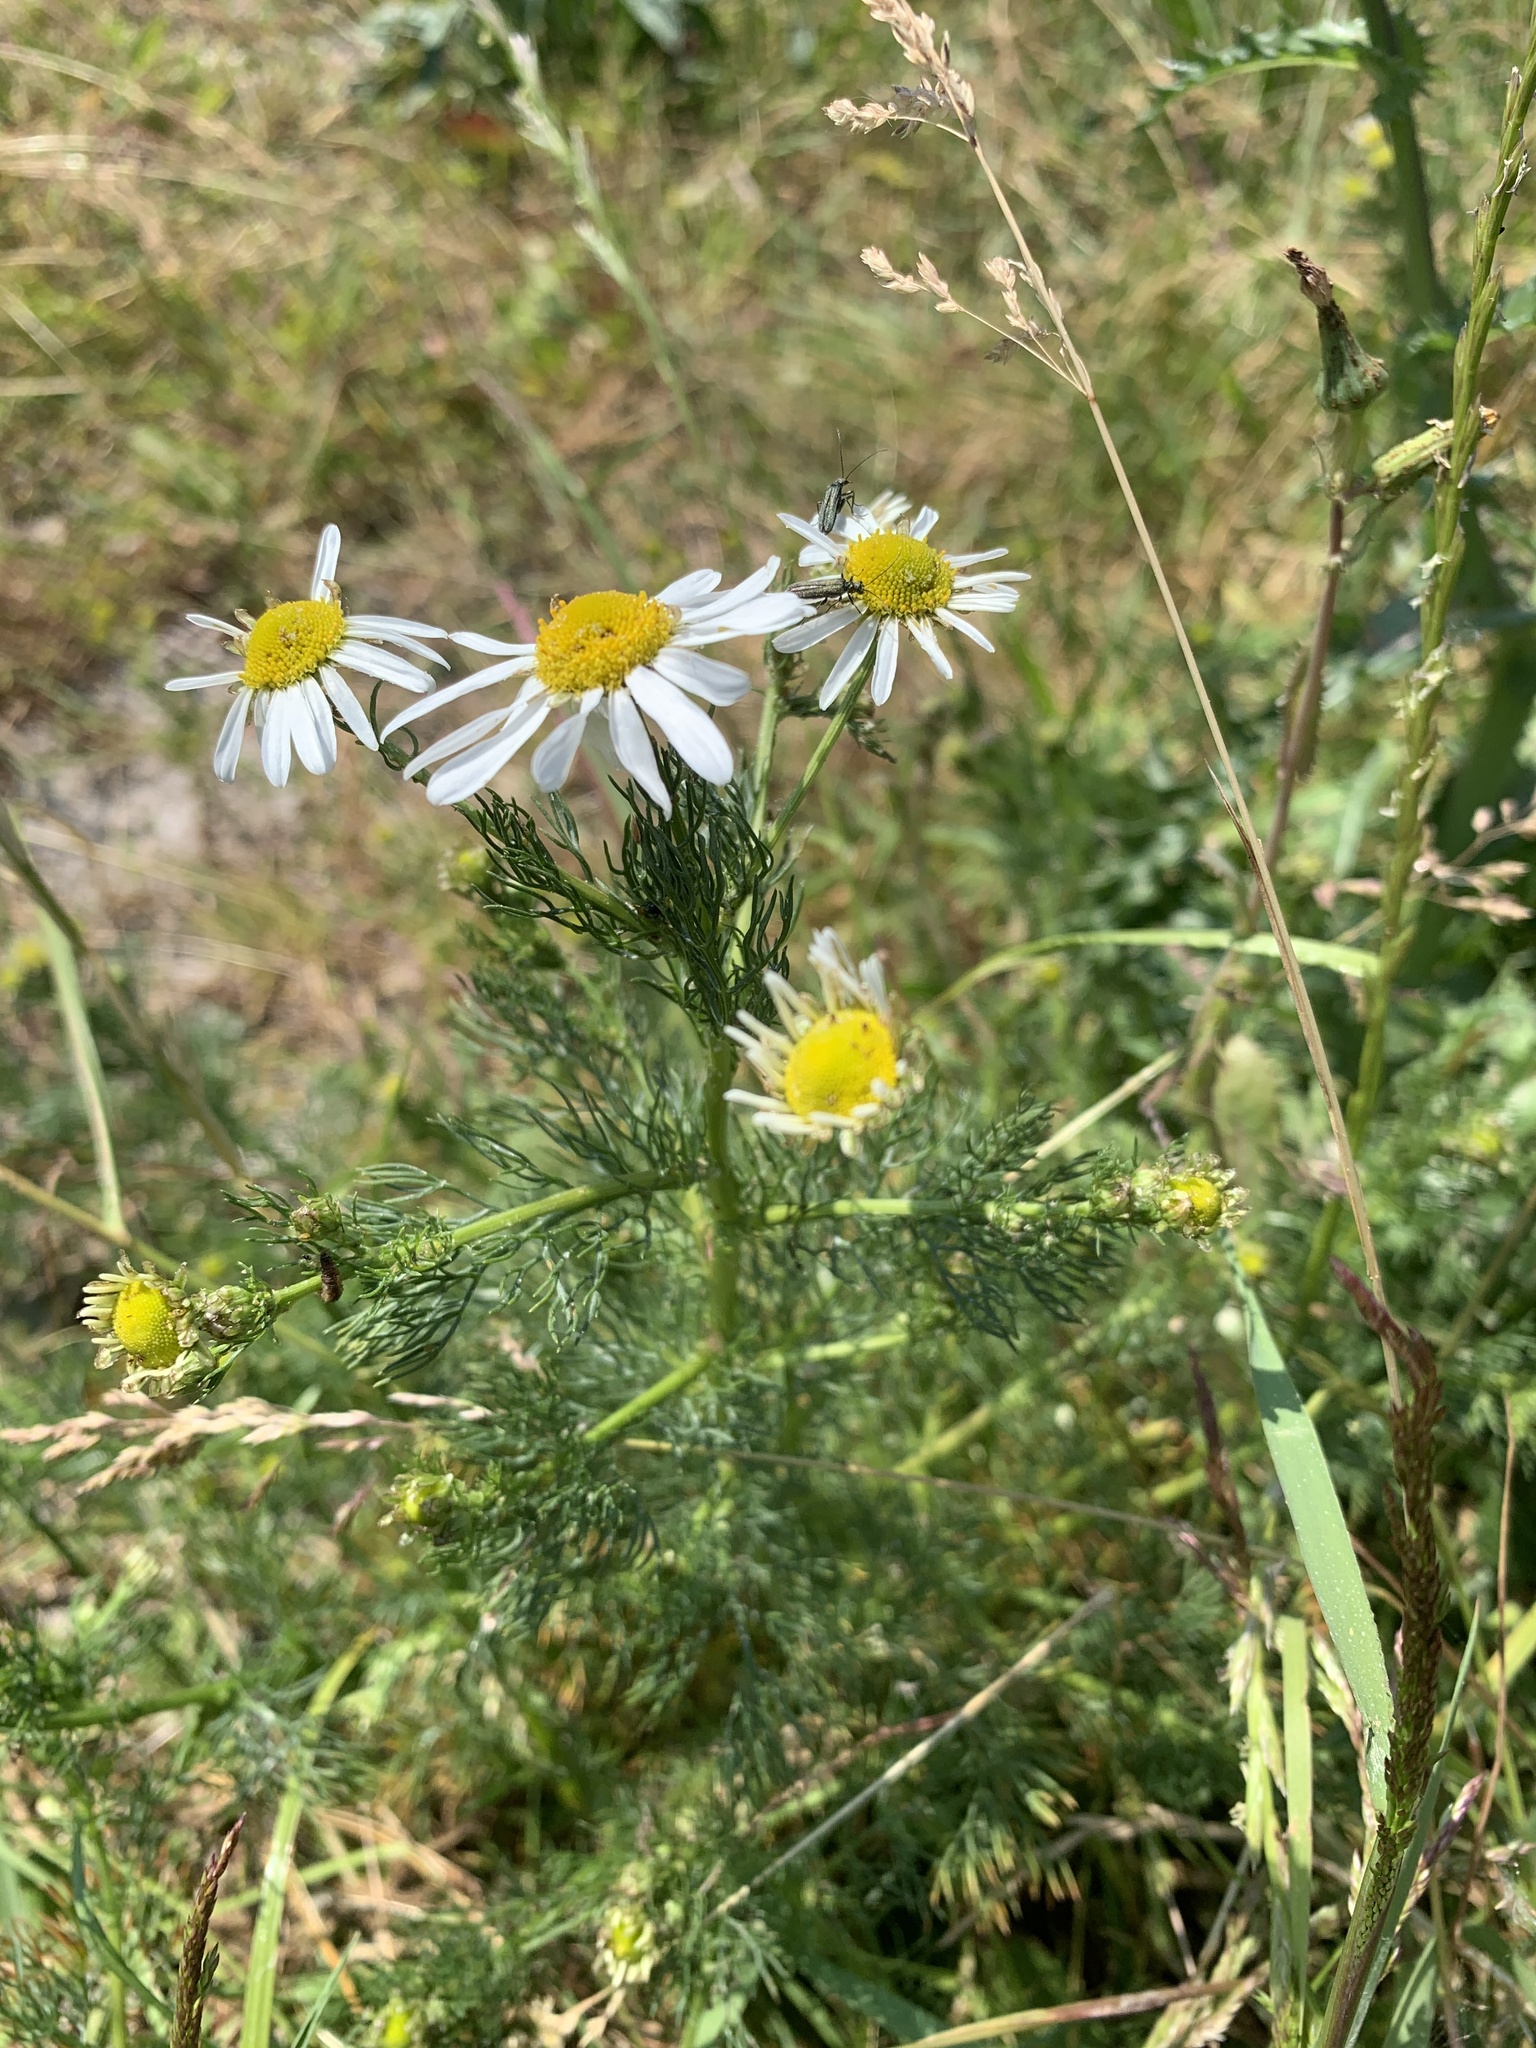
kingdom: Plantae
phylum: Tracheophyta
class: Magnoliopsida
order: Asterales
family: Asteraceae
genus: Tripleurospermum
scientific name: Tripleurospermum inodorum
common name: Scentless mayweed
